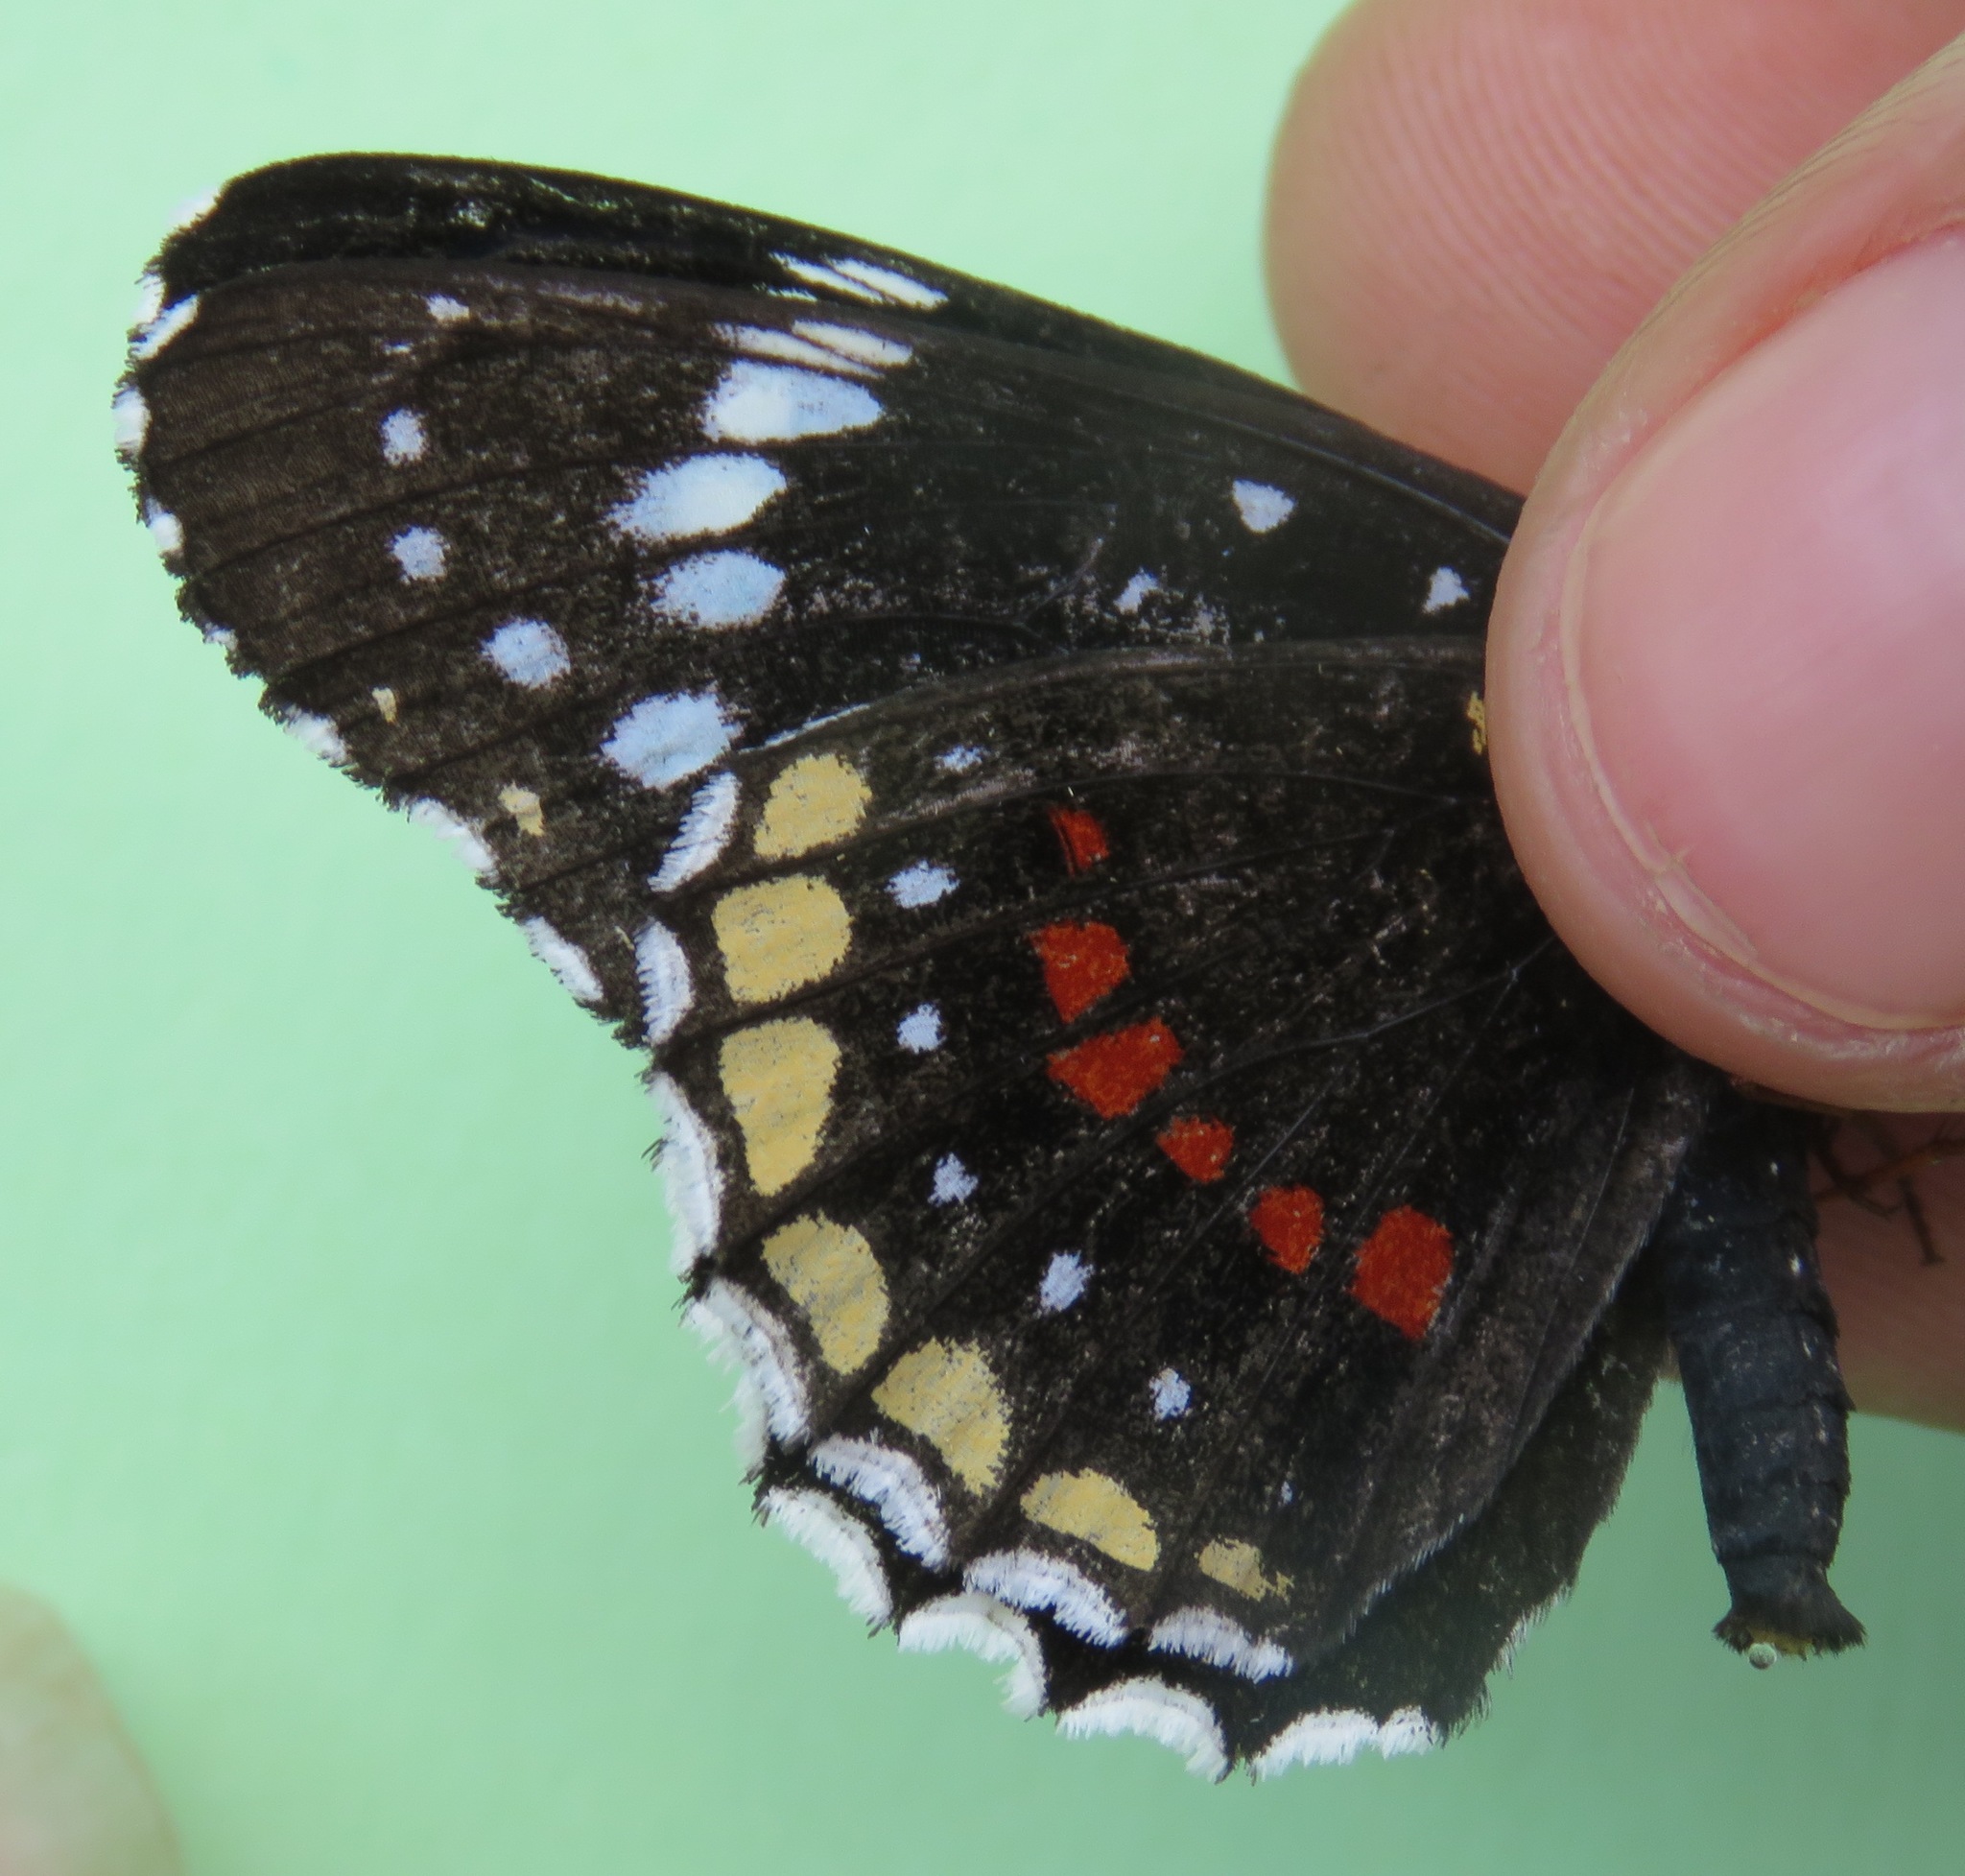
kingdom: Animalia
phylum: Arthropoda
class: Insecta
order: Lepidoptera
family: Nymphalidae
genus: Chlosyne
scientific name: Chlosyne hippodrome
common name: Simple patch
